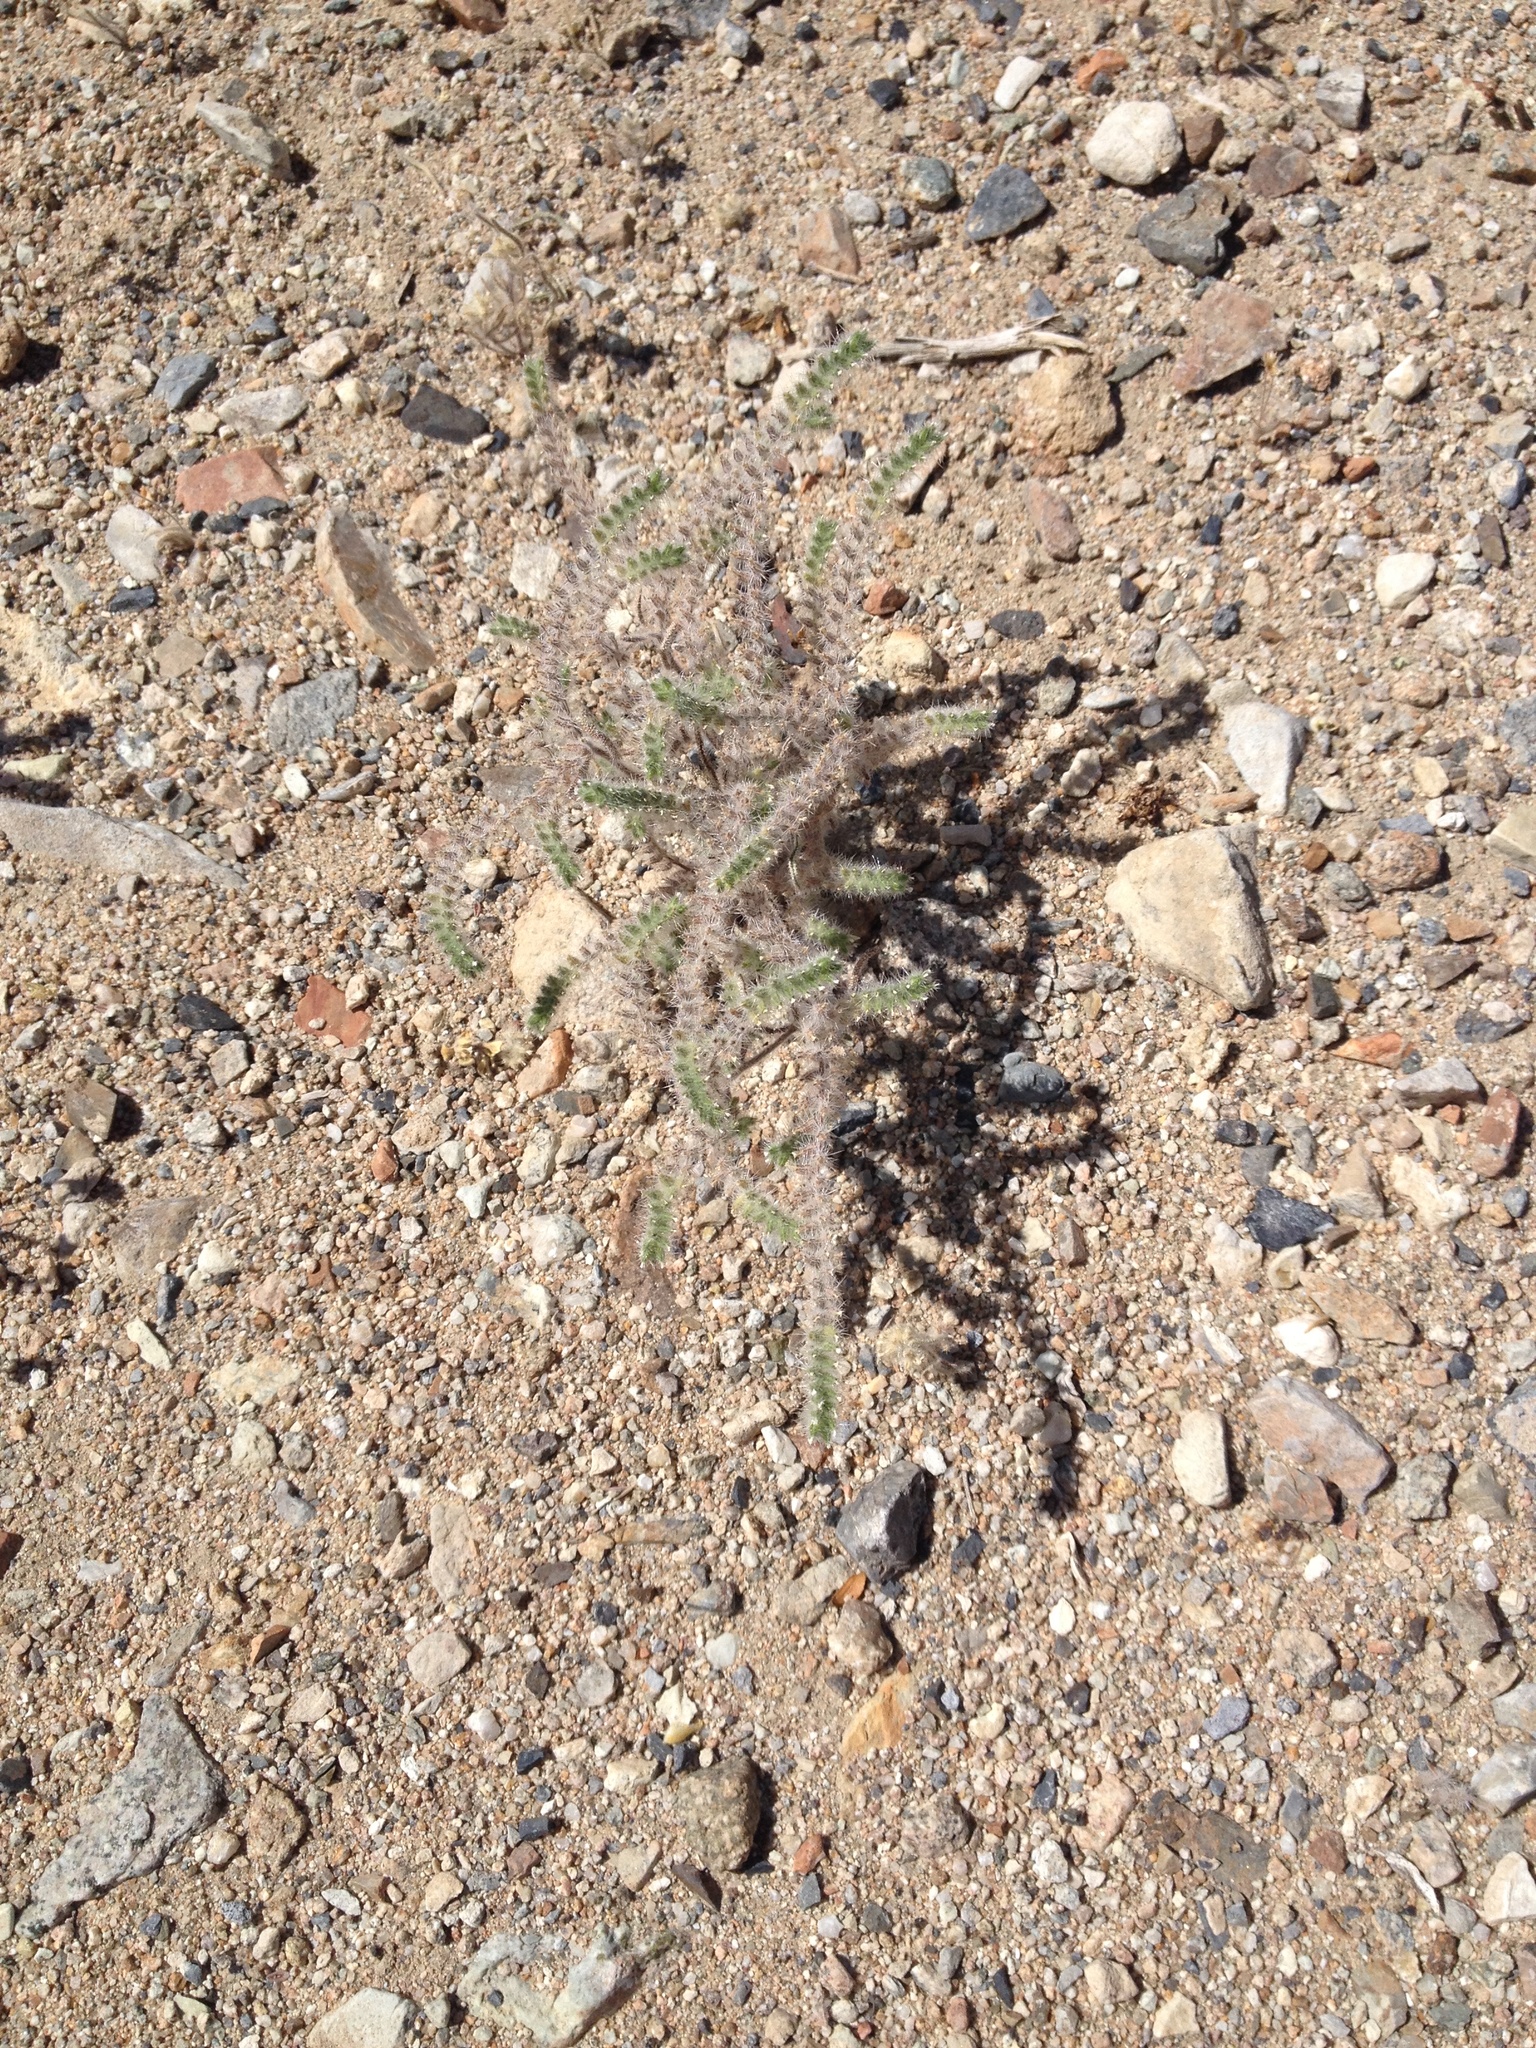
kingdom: Plantae
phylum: Tracheophyta
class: Magnoliopsida
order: Boraginales
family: Boraginaceae
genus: Johnstonella
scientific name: Johnstonella angustifolia
